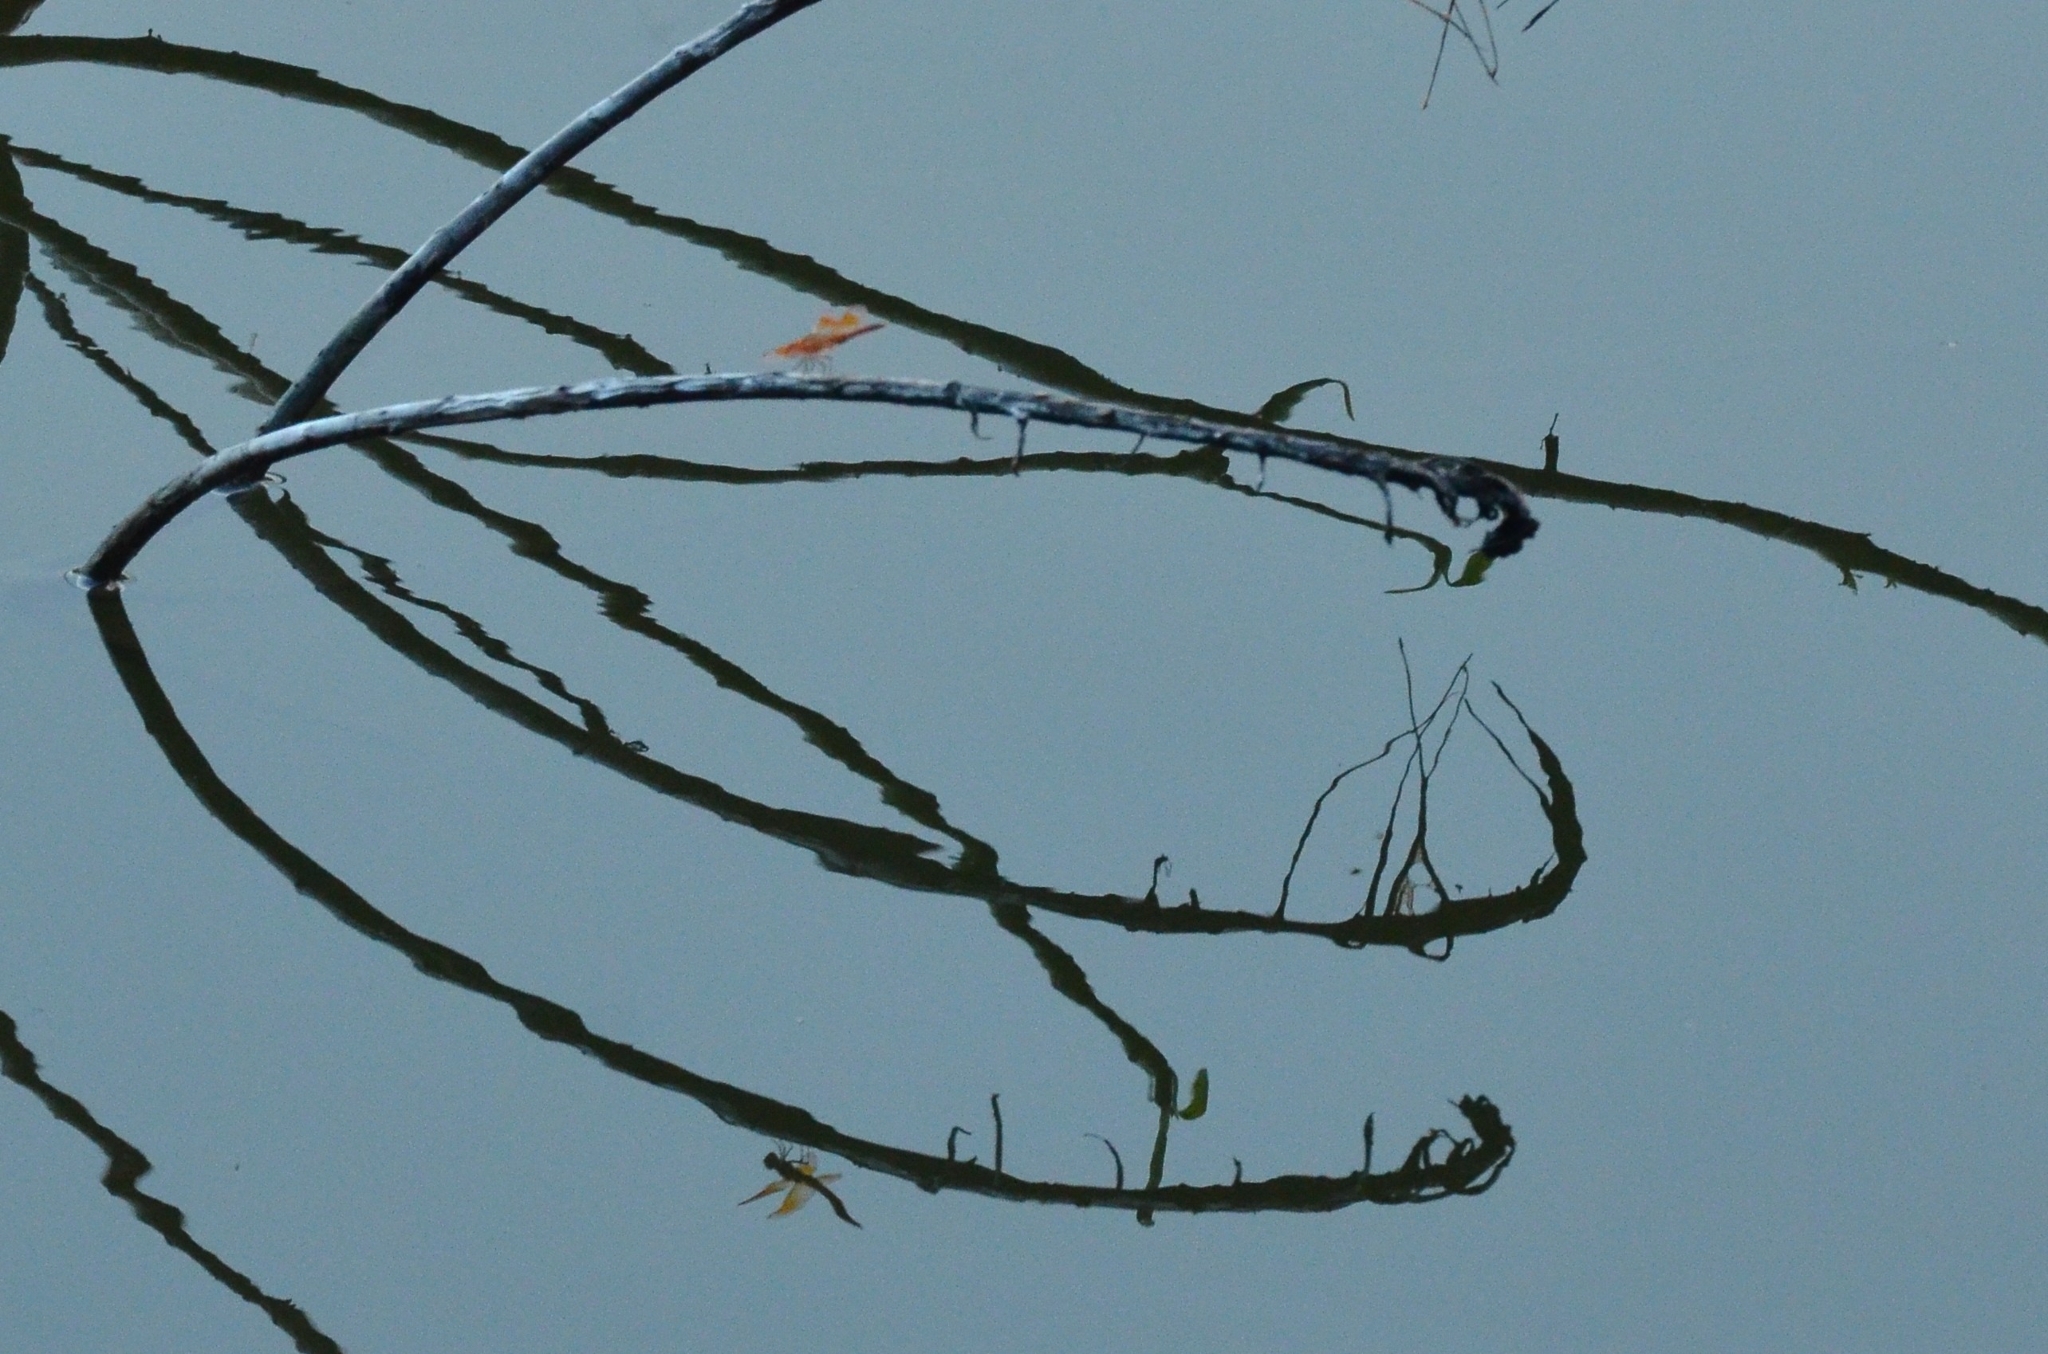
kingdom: Animalia
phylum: Arthropoda
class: Insecta
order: Odonata
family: Libellulidae
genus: Brachythemis
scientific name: Brachythemis contaminata
